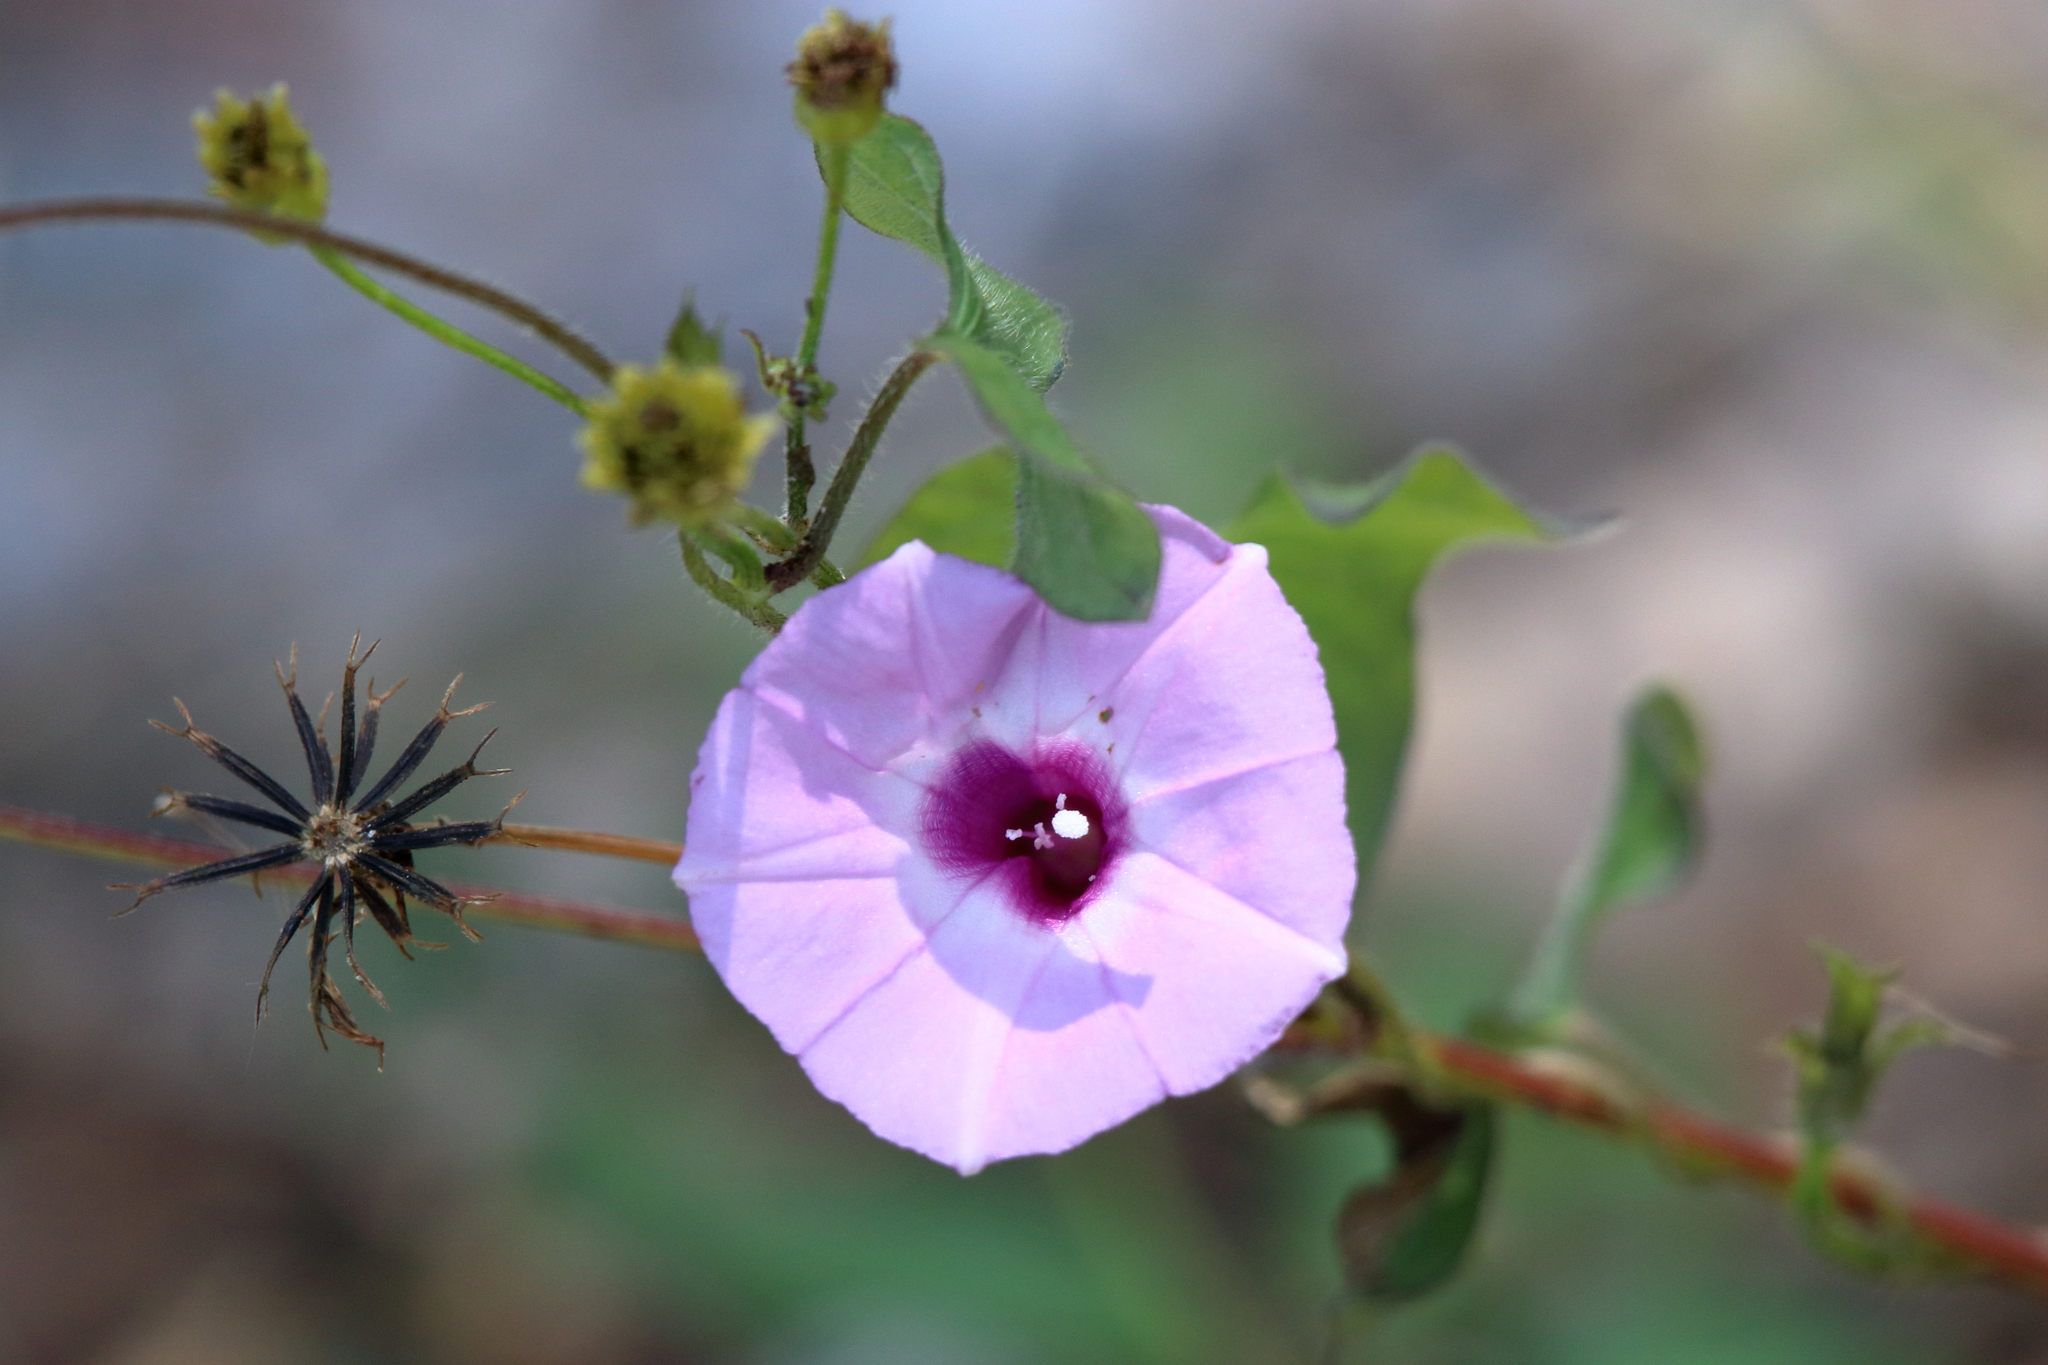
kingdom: Plantae
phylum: Tracheophyta
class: Magnoliopsida
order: Solanales
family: Convolvulaceae
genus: Ipomoea
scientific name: Ipomoea cordatotriloba
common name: Cotton morning glory
